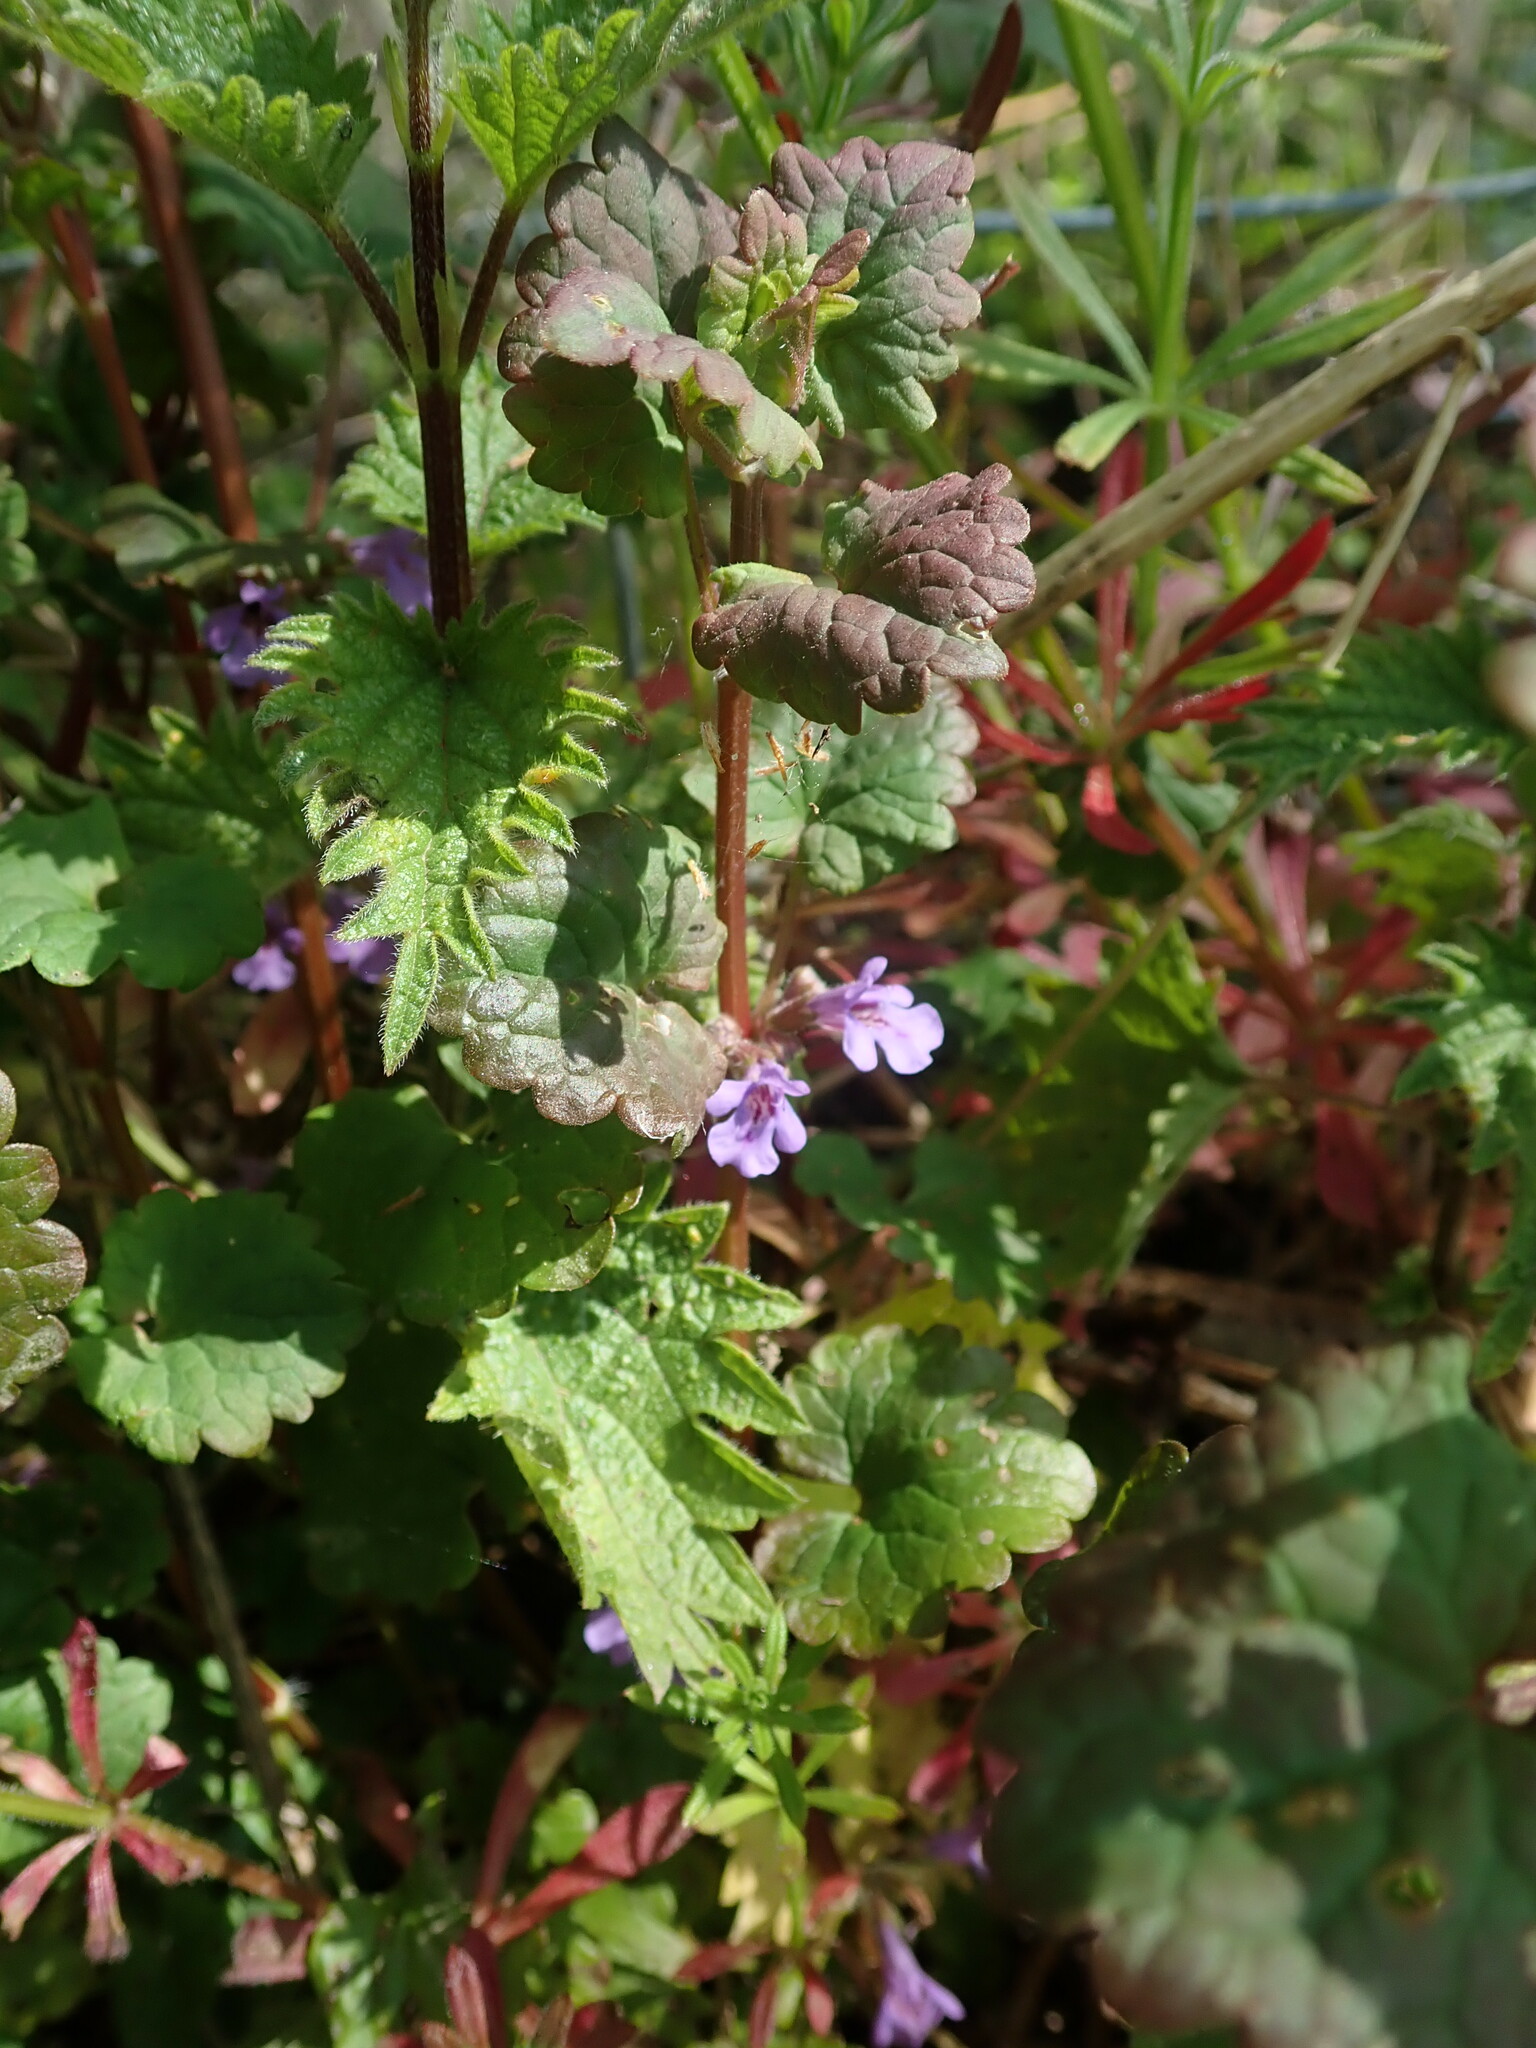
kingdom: Plantae
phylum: Tracheophyta
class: Magnoliopsida
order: Lamiales
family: Lamiaceae
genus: Glechoma
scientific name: Glechoma hederacea
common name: Ground ivy
